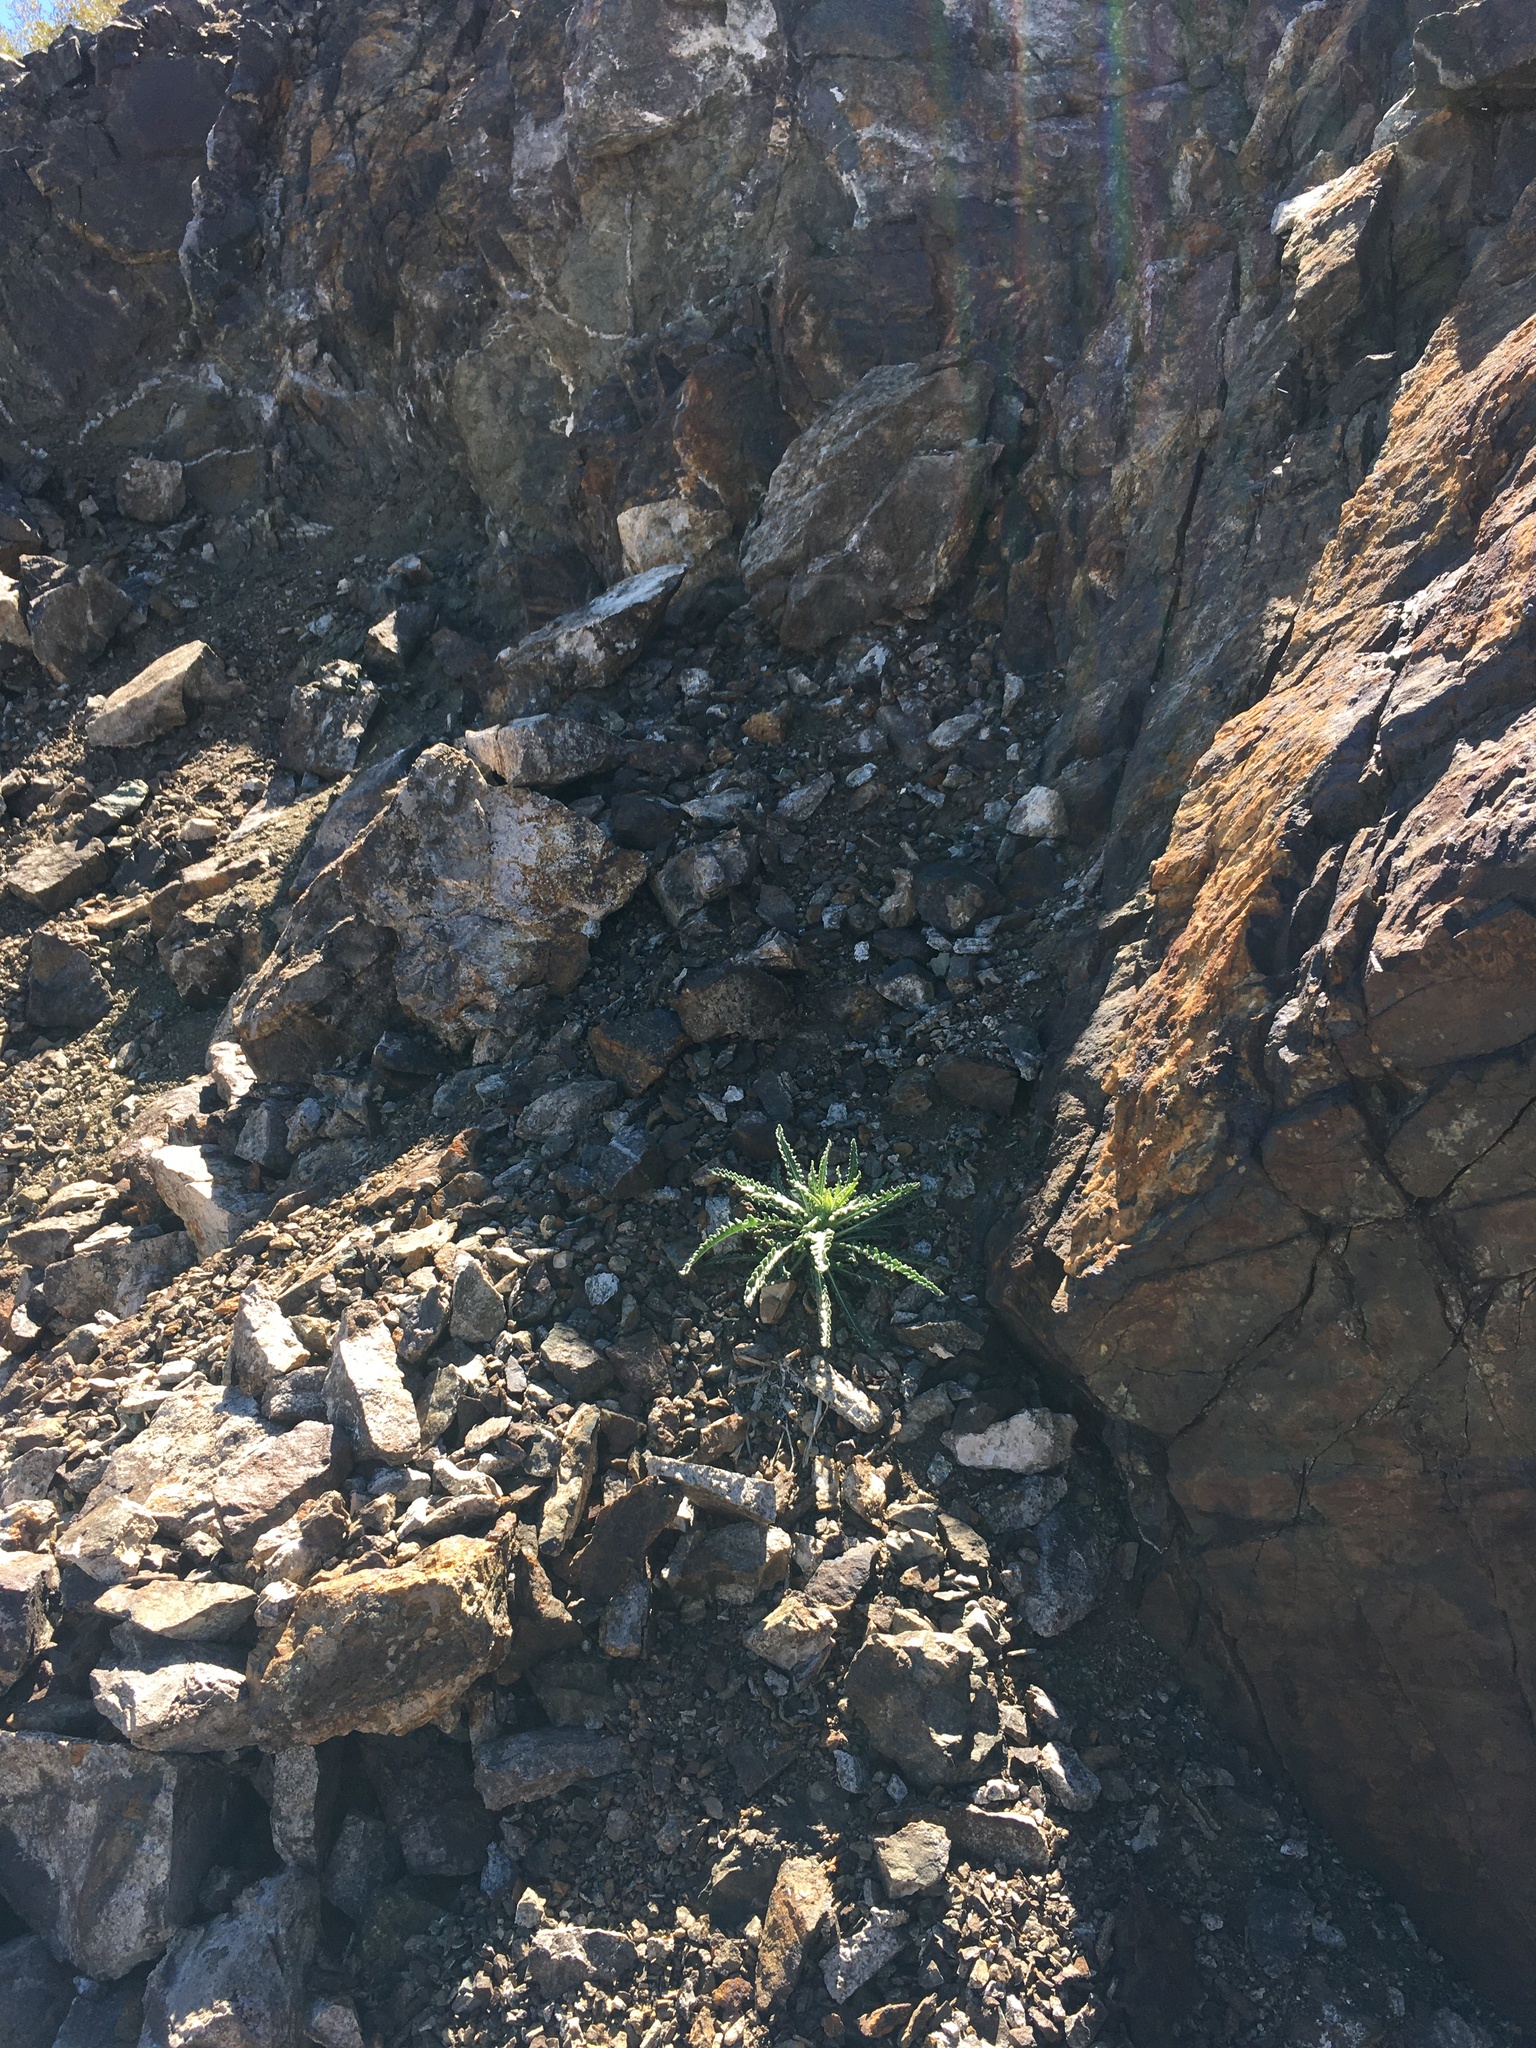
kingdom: Plantae
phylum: Tracheophyta
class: Magnoliopsida
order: Cornales
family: Loasaceae
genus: Mentzelia
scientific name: Mentzelia laevicaulis
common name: Smooth-stem blazingstar
